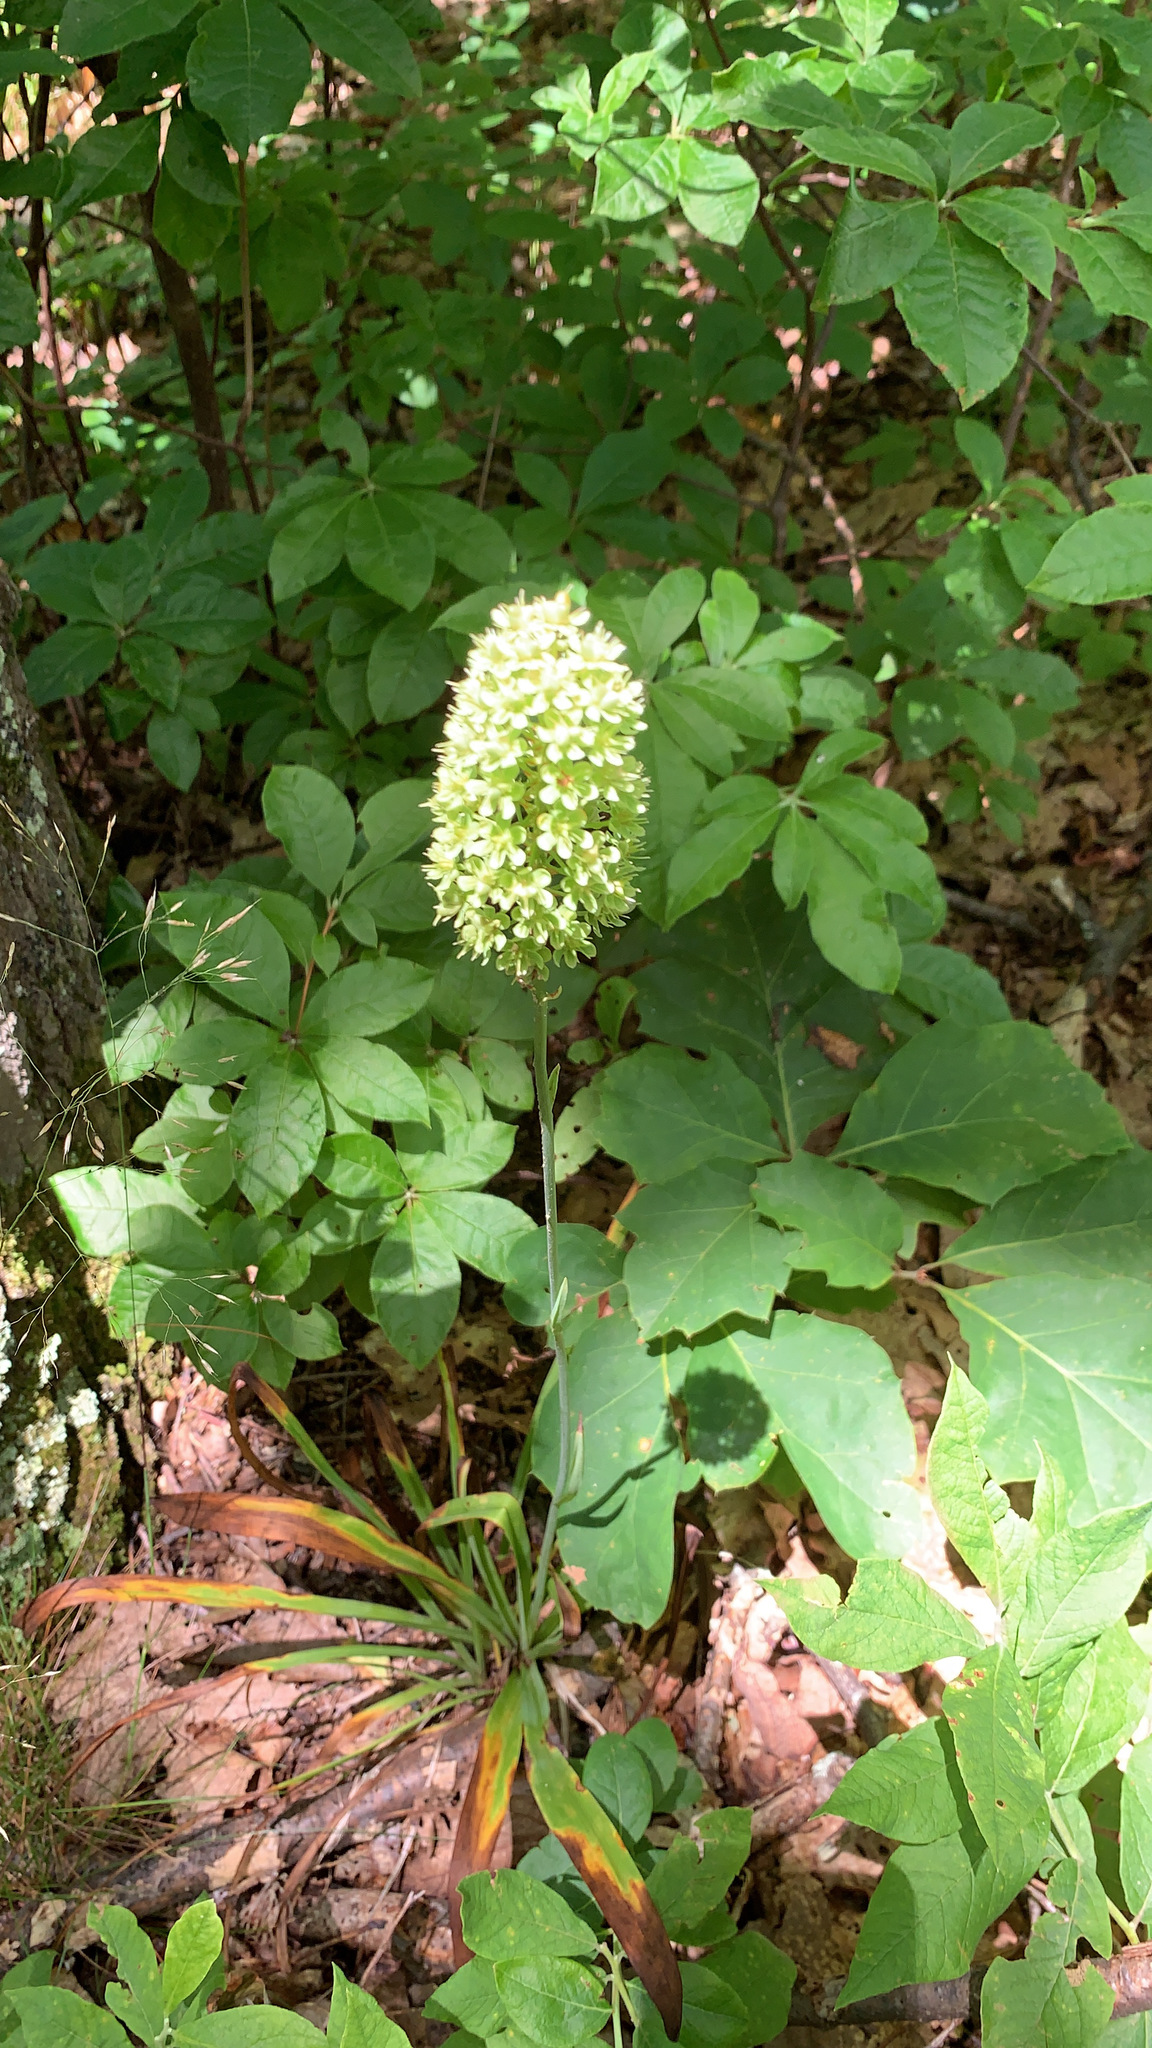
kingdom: Plantae
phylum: Tracheophyta
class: Liliopsida
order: Liliales
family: Melanthiaceae
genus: Amianthium
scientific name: Amianthium muscitoxicum
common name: Fly-poison
